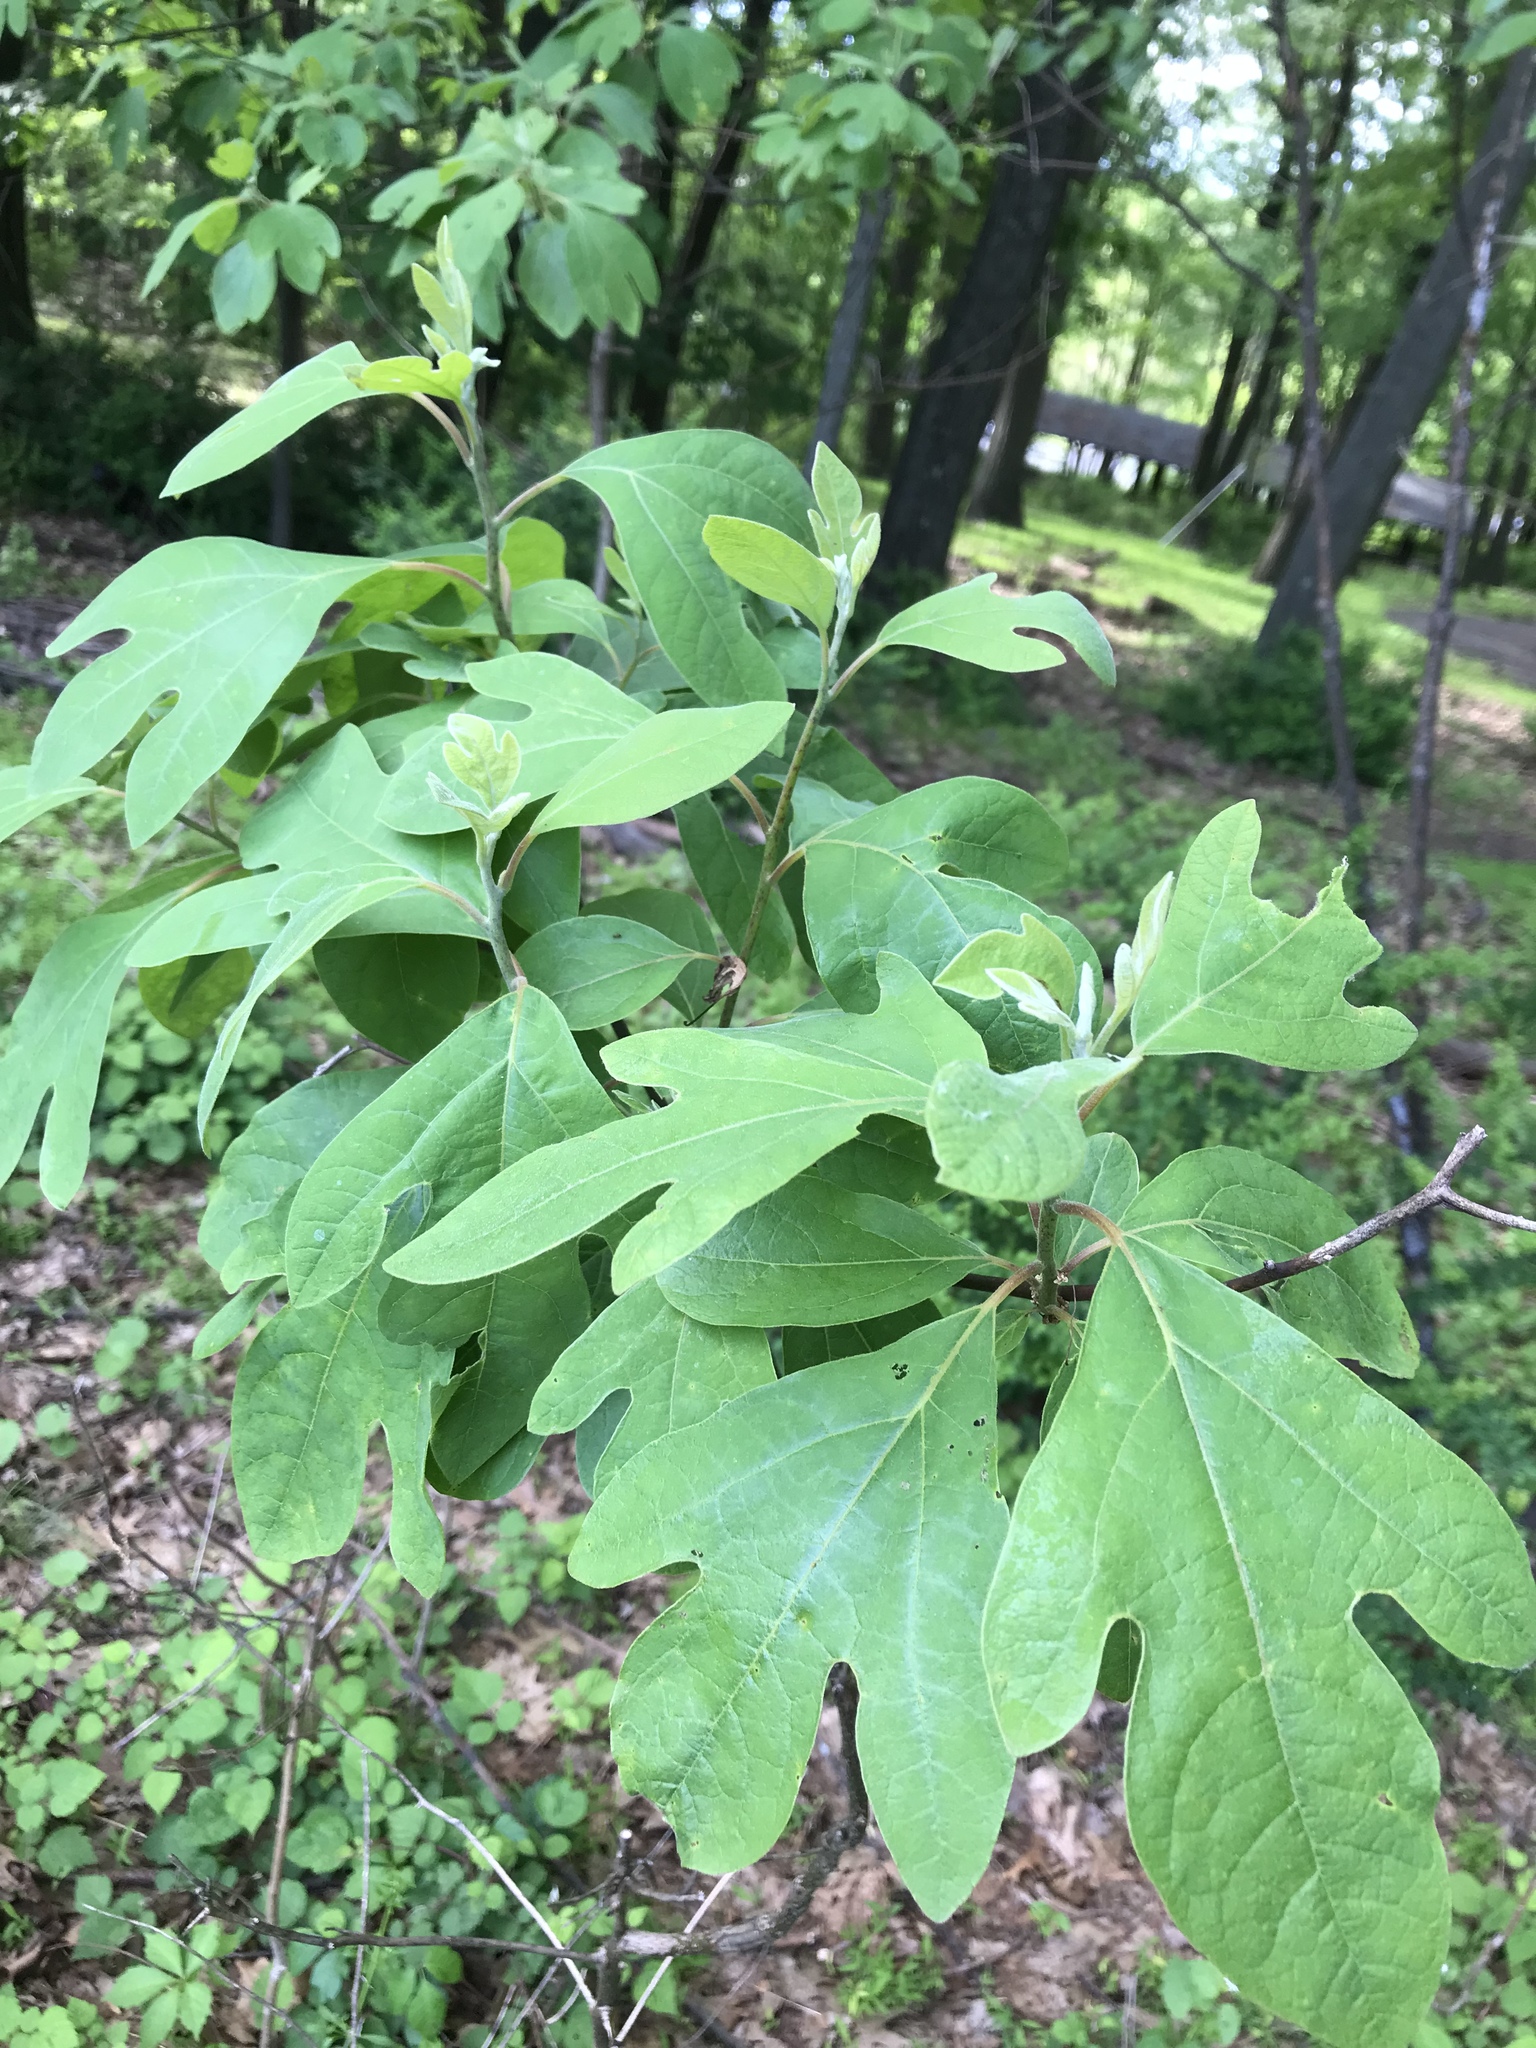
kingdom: Plantae
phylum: Tracheophyta
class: Magnoliopsida
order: Laurales
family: Lauraceae
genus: Sassafras
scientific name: Sassafras albidum
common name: Sassafras
